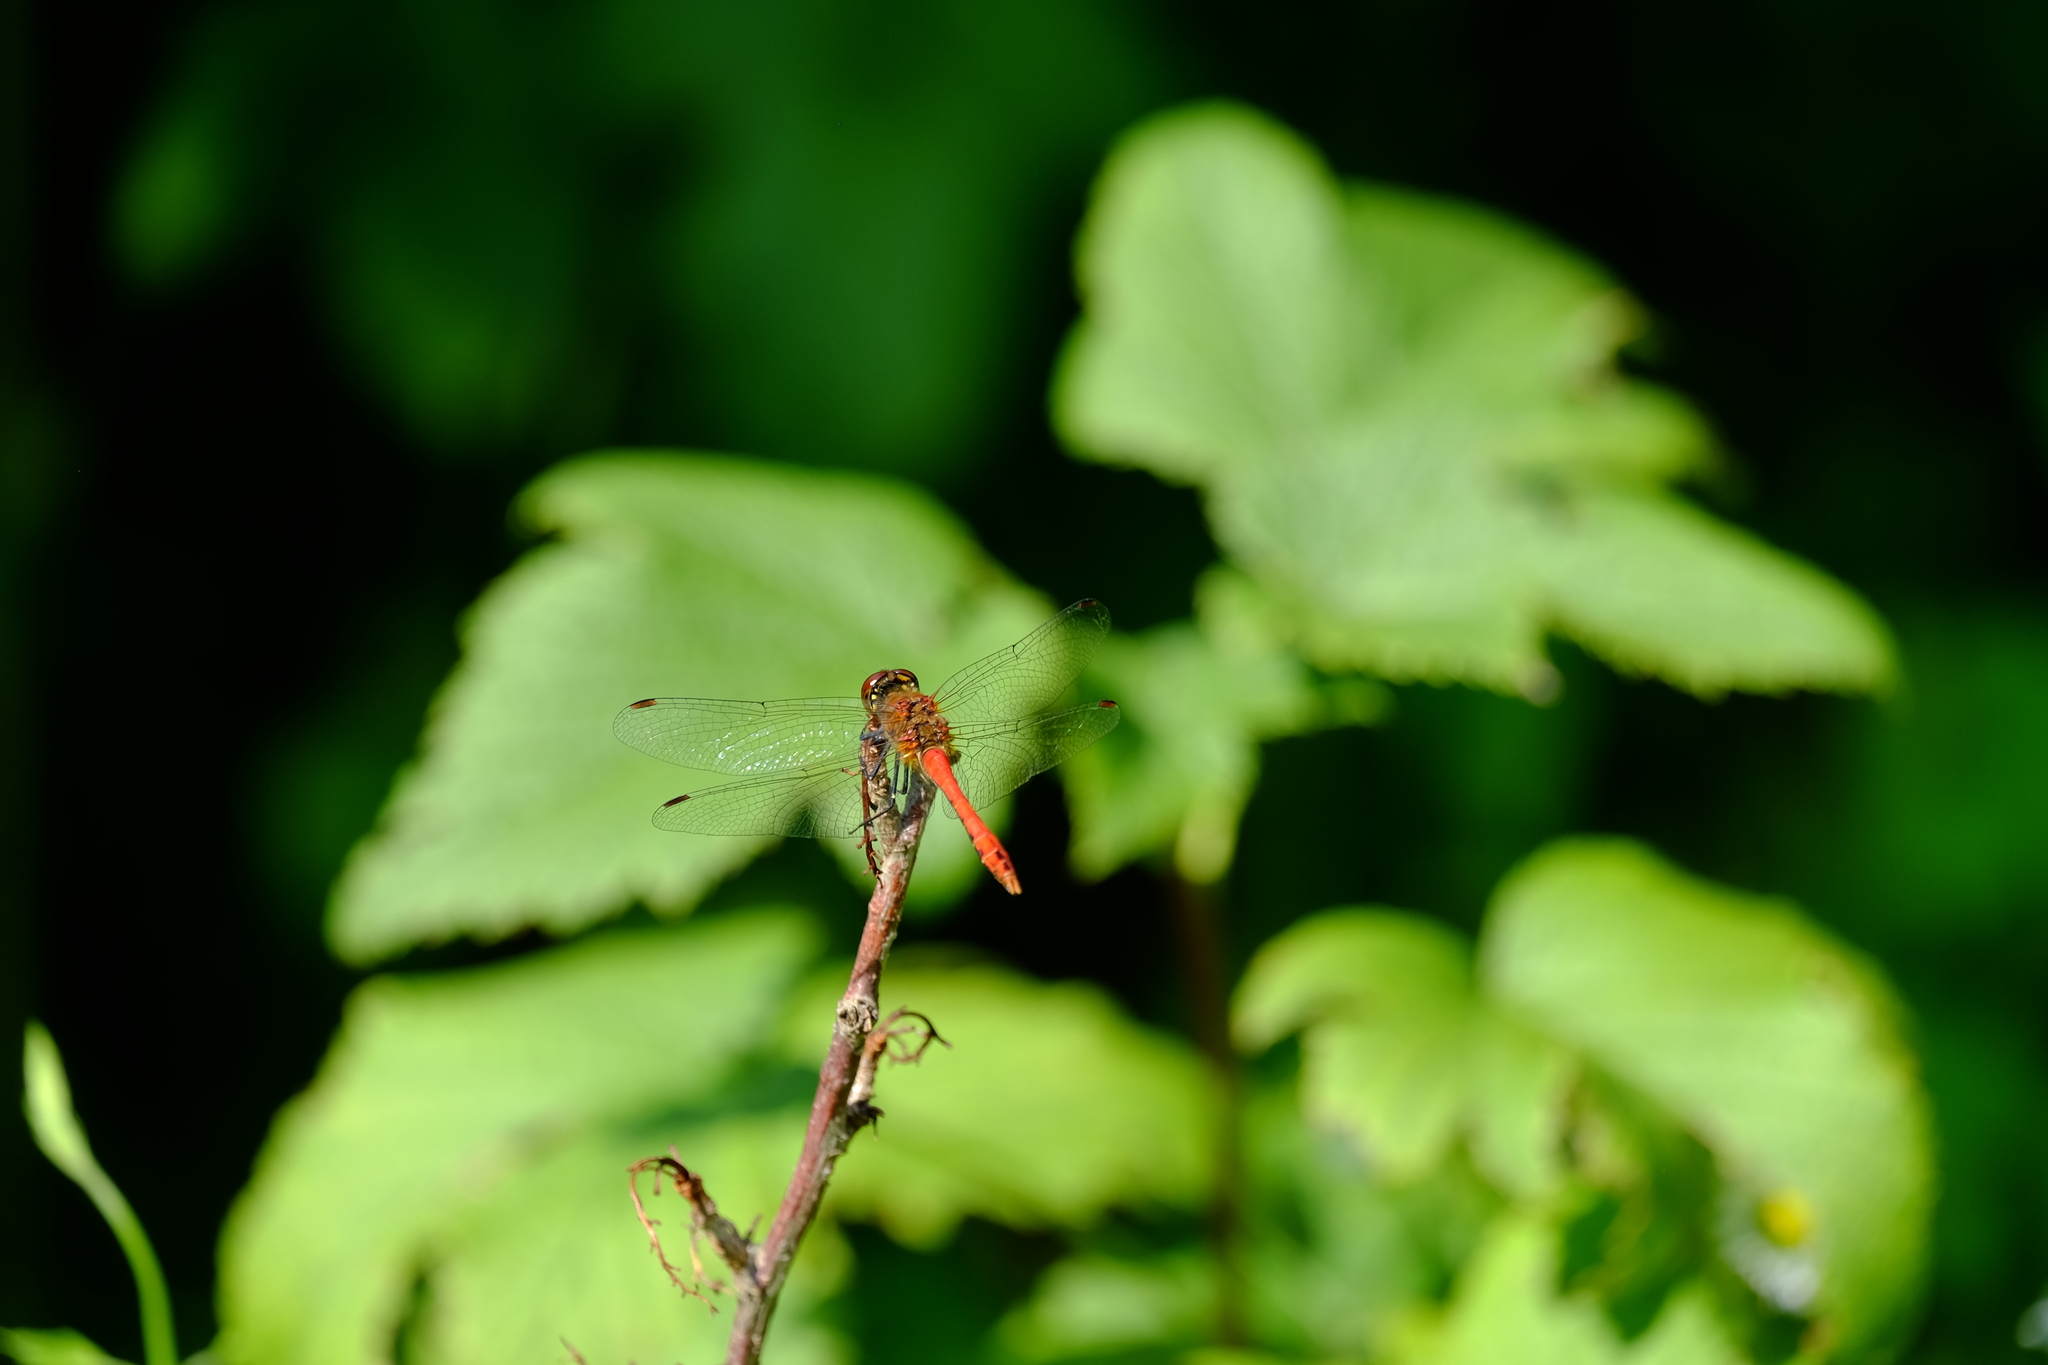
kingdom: Animalia
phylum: Arthropoda
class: Insecta
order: Odonata
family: Libellulidae
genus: Sympetrum
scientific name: Sympetrum sanguineum
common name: Ruddy darter
